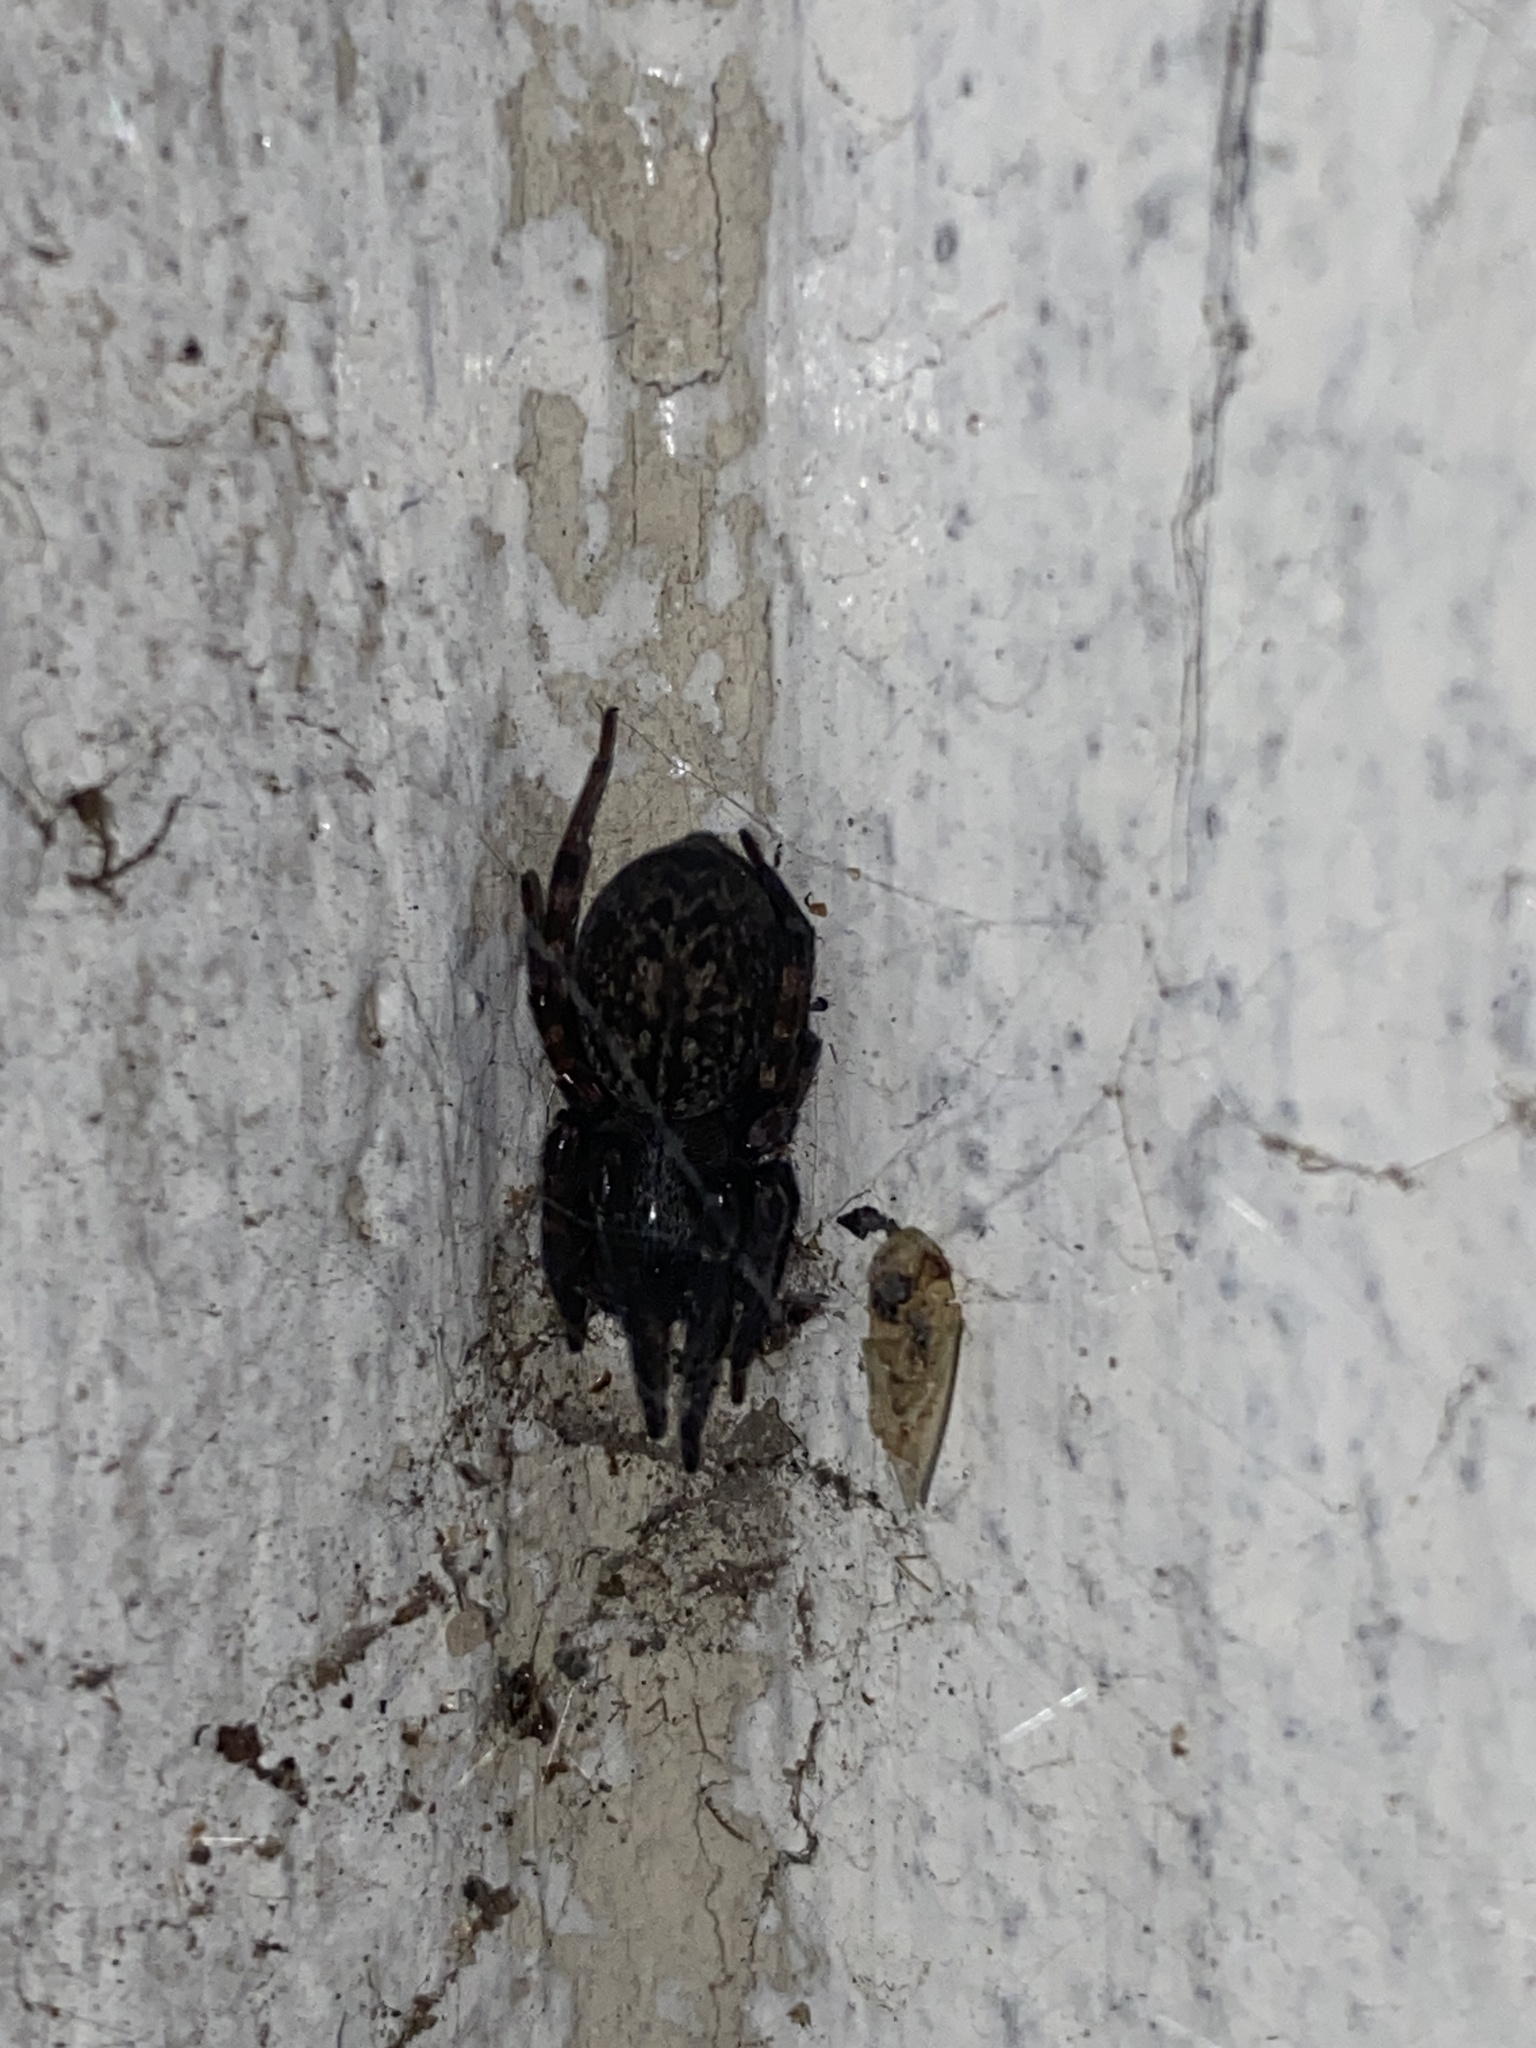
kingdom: Animalia
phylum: Arthropoda
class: Arachnida
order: Araneae
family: Desidae
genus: Badumna
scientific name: Badumna longinqua
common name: Gray house spider
